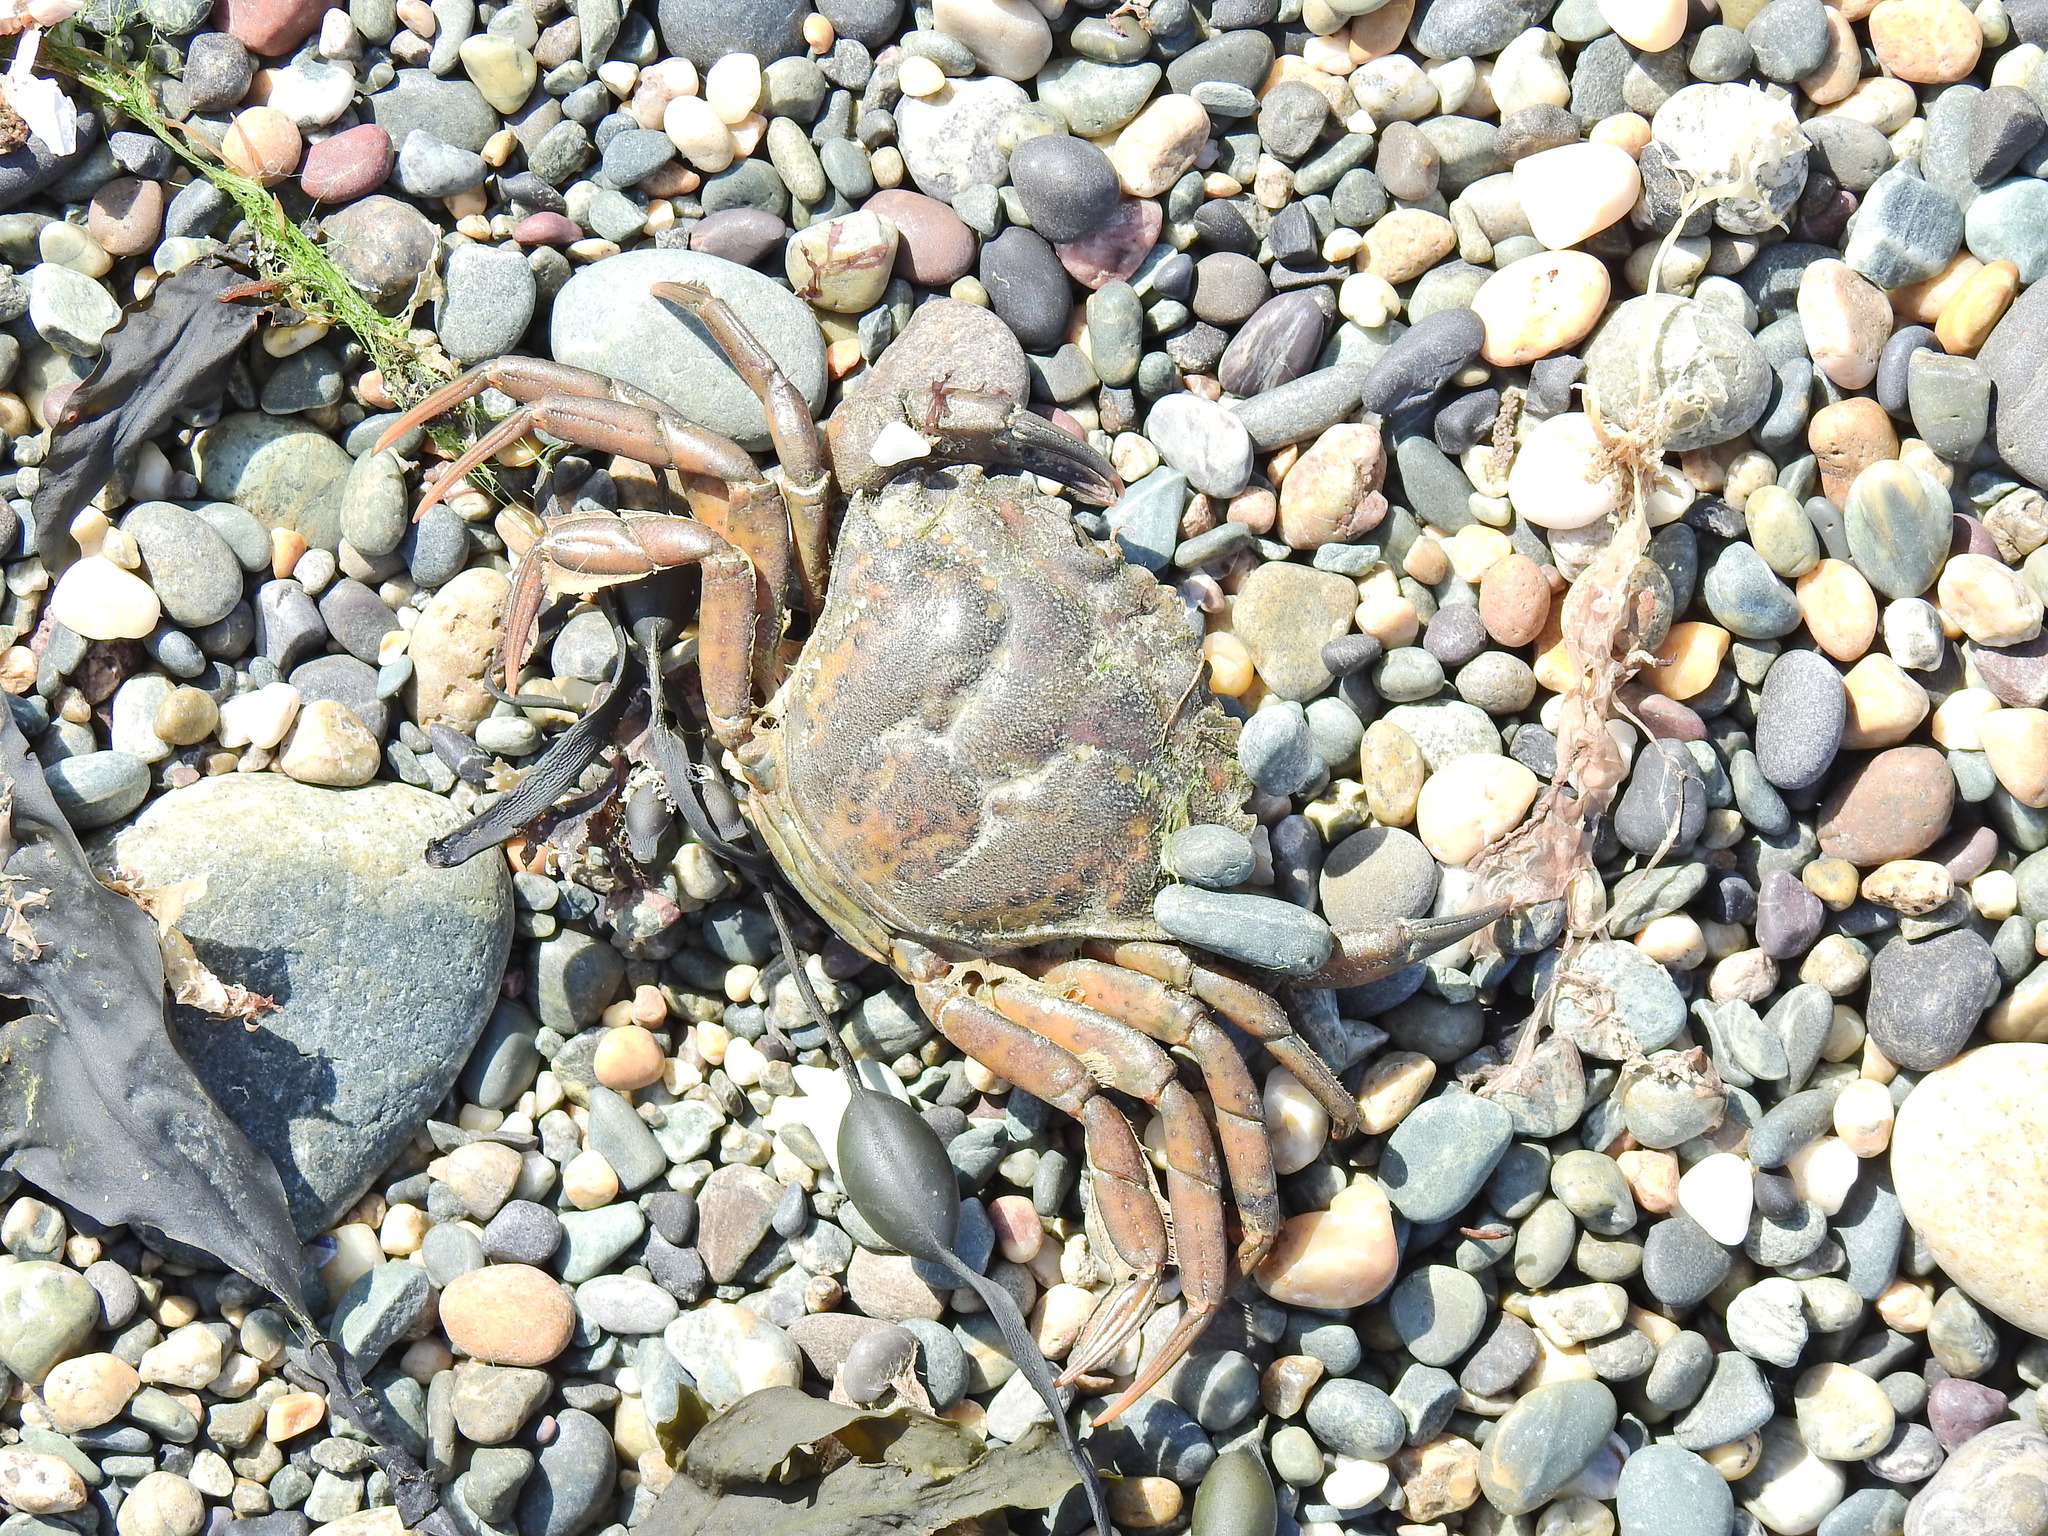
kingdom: Animalia
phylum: Arthropoda
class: Malacostraca
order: Decapoda
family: Carcinidae
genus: Carcinus
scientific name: Carcinus maenas
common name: European green crab
